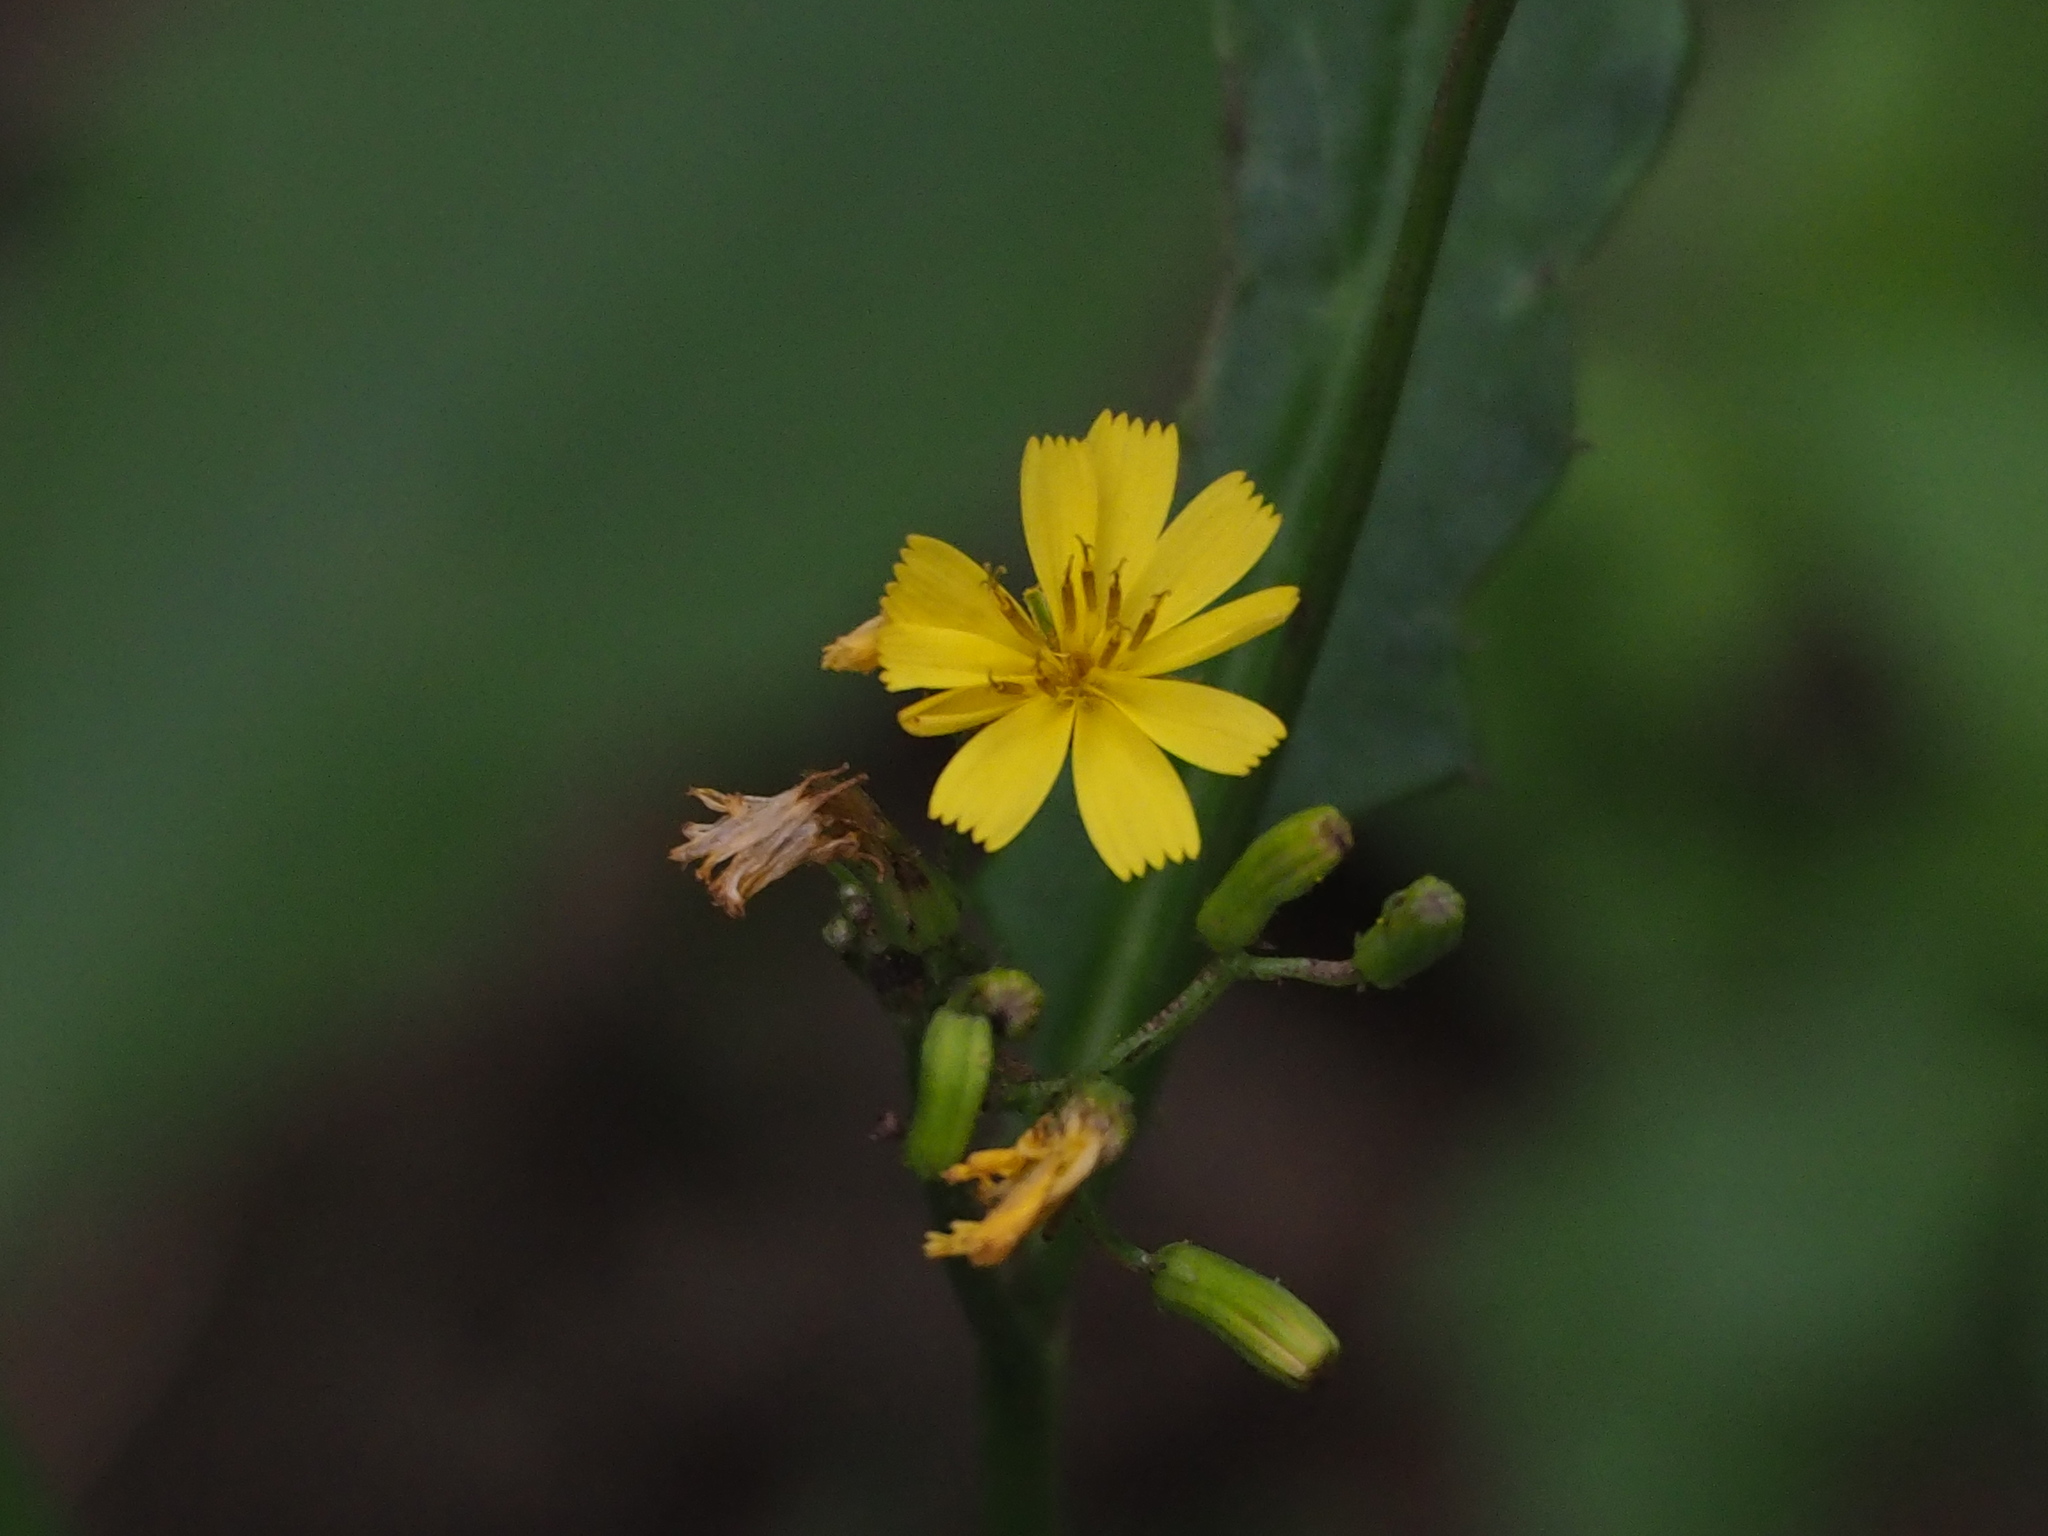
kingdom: Plantae
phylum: Tracheophyta
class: Magnoliopsida
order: Asterales
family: Asteraceae
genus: Ixeridium
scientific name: Ixeridium laevigatum
